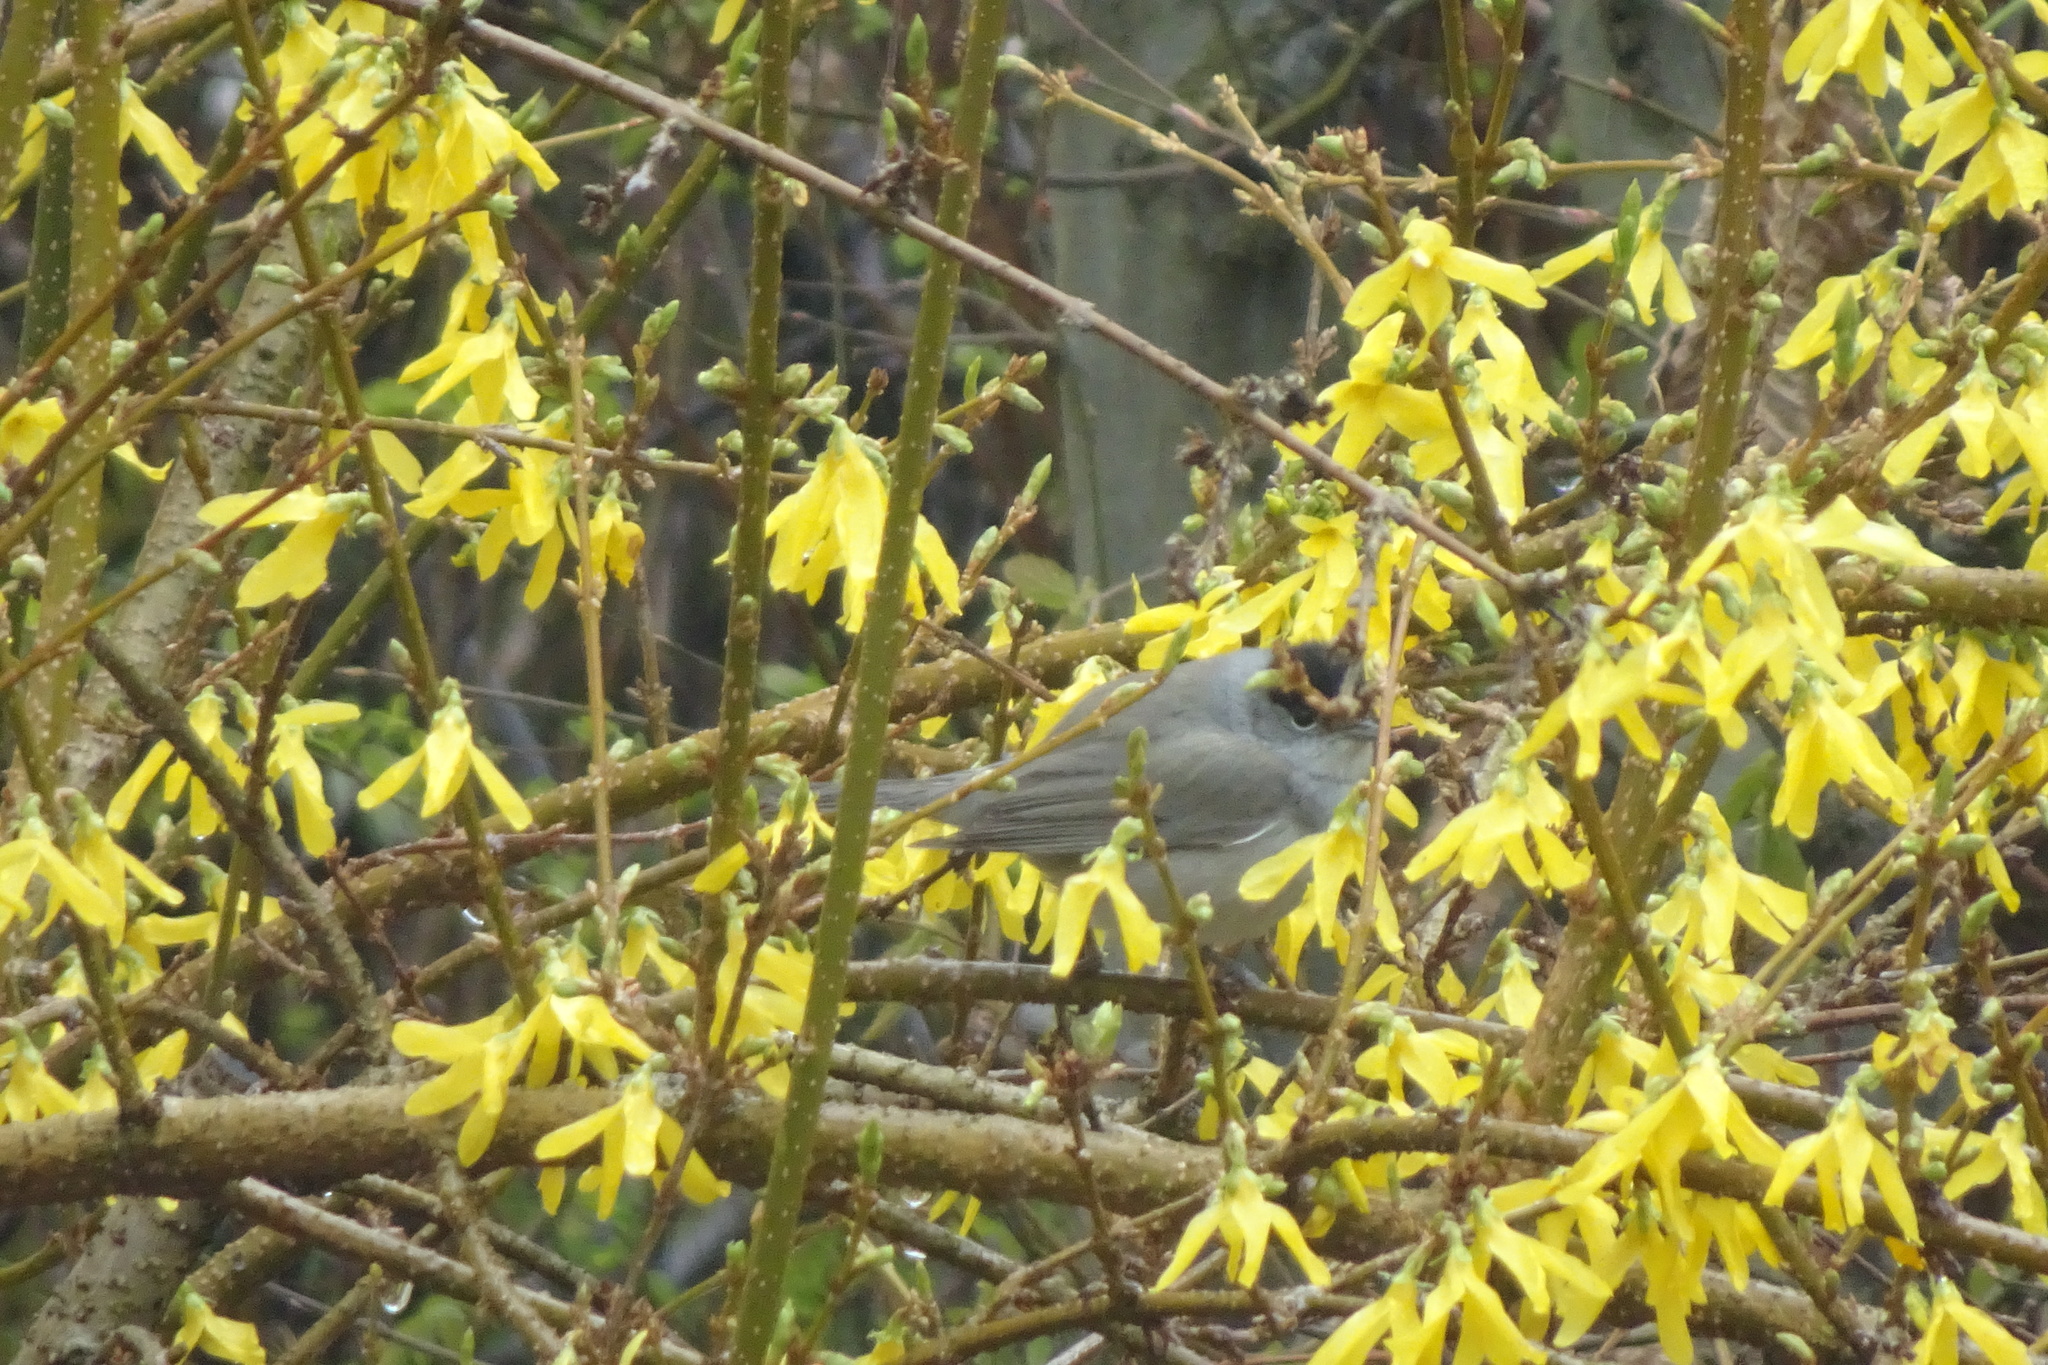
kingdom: Animalia
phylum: Chordata
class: Aves
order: Passeriformes
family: Sylviidae
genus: Sylvia
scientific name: Sylvia atricapilla
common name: Eurasian blackcap
